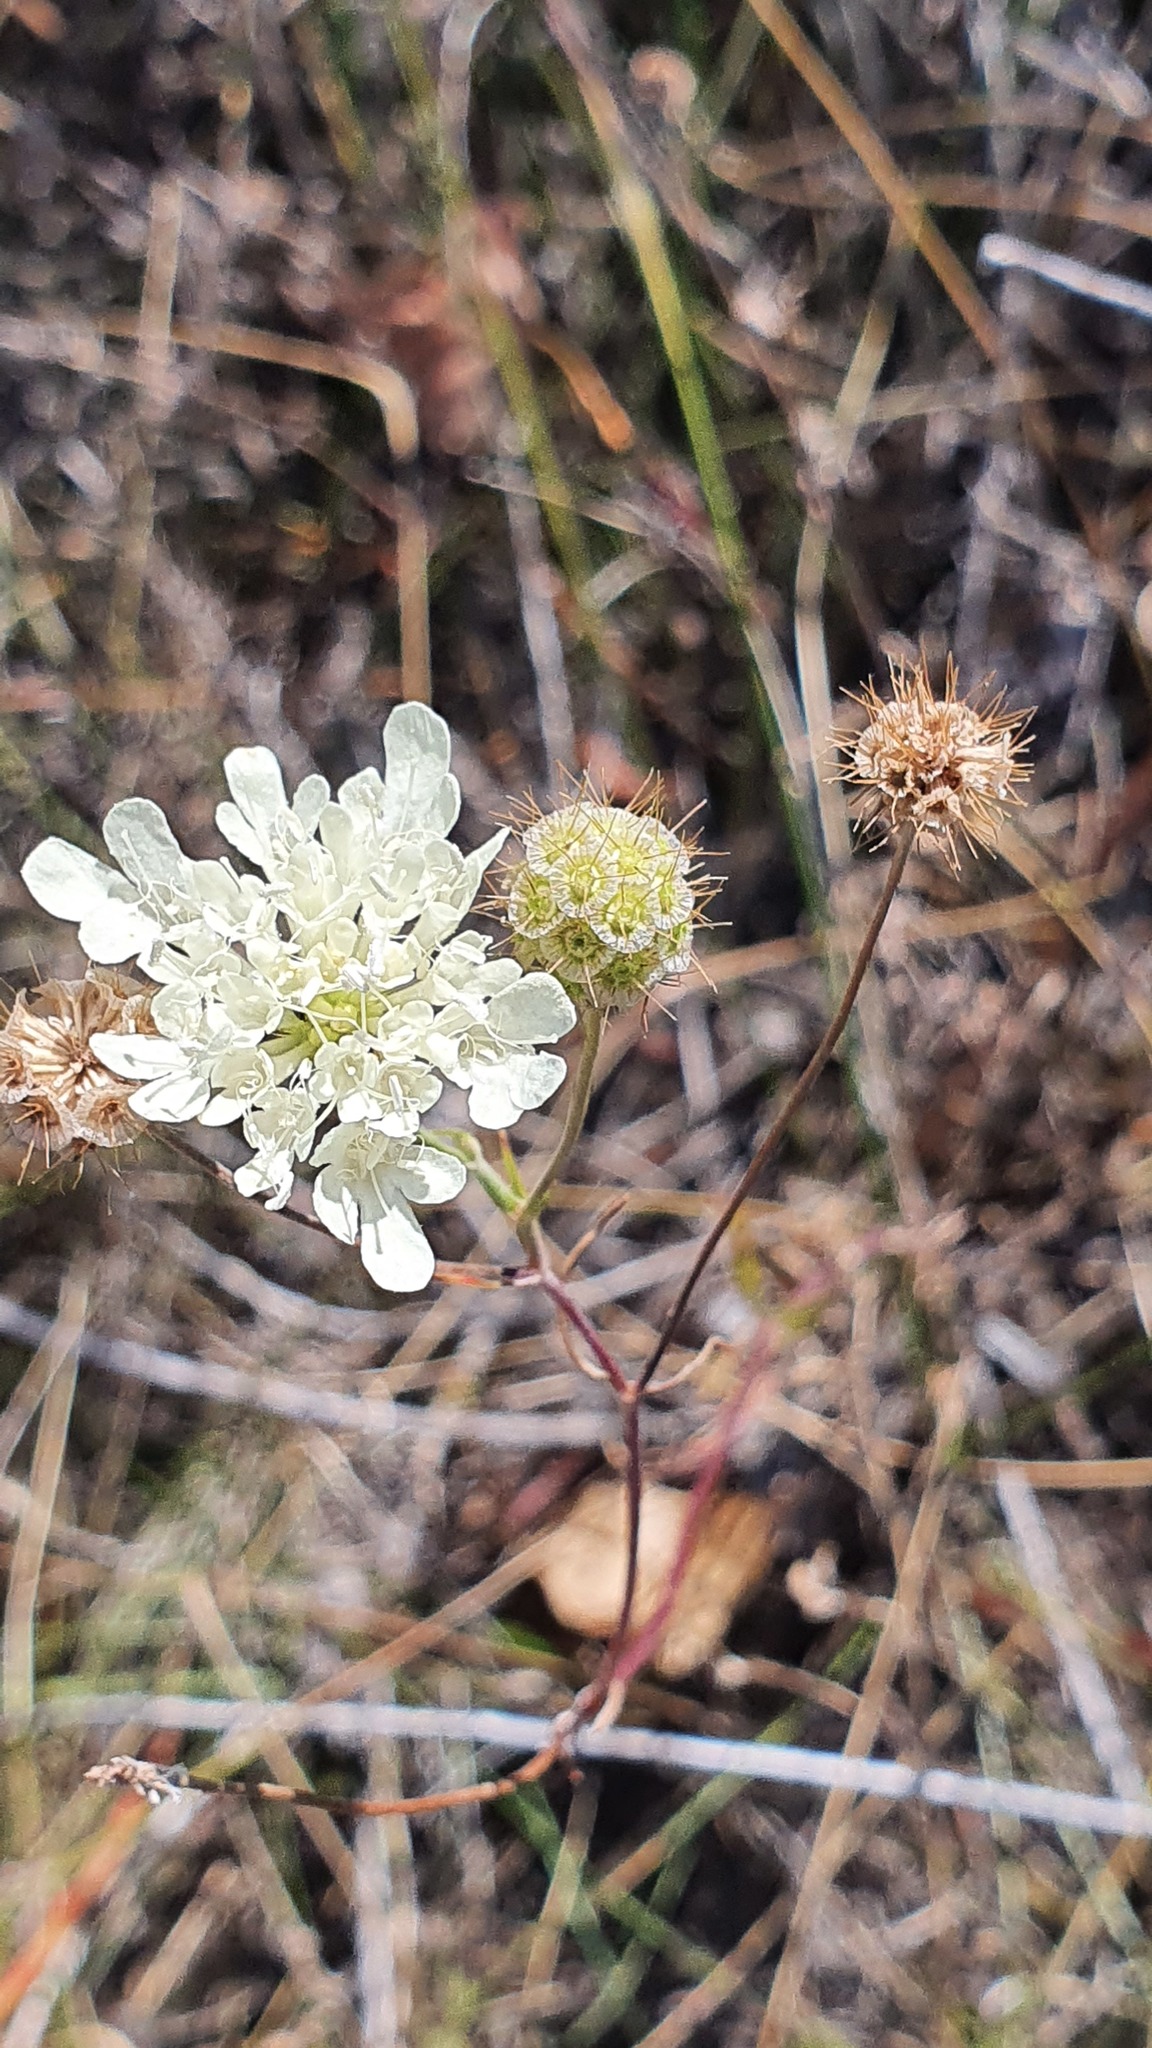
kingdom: Plantae
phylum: Tracheophyta
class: Magnoliopsida
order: Dipsacales
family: Caprifoliaceae
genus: Scabiosa
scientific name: Scabiosa ochroleuca
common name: Cream pincushions
